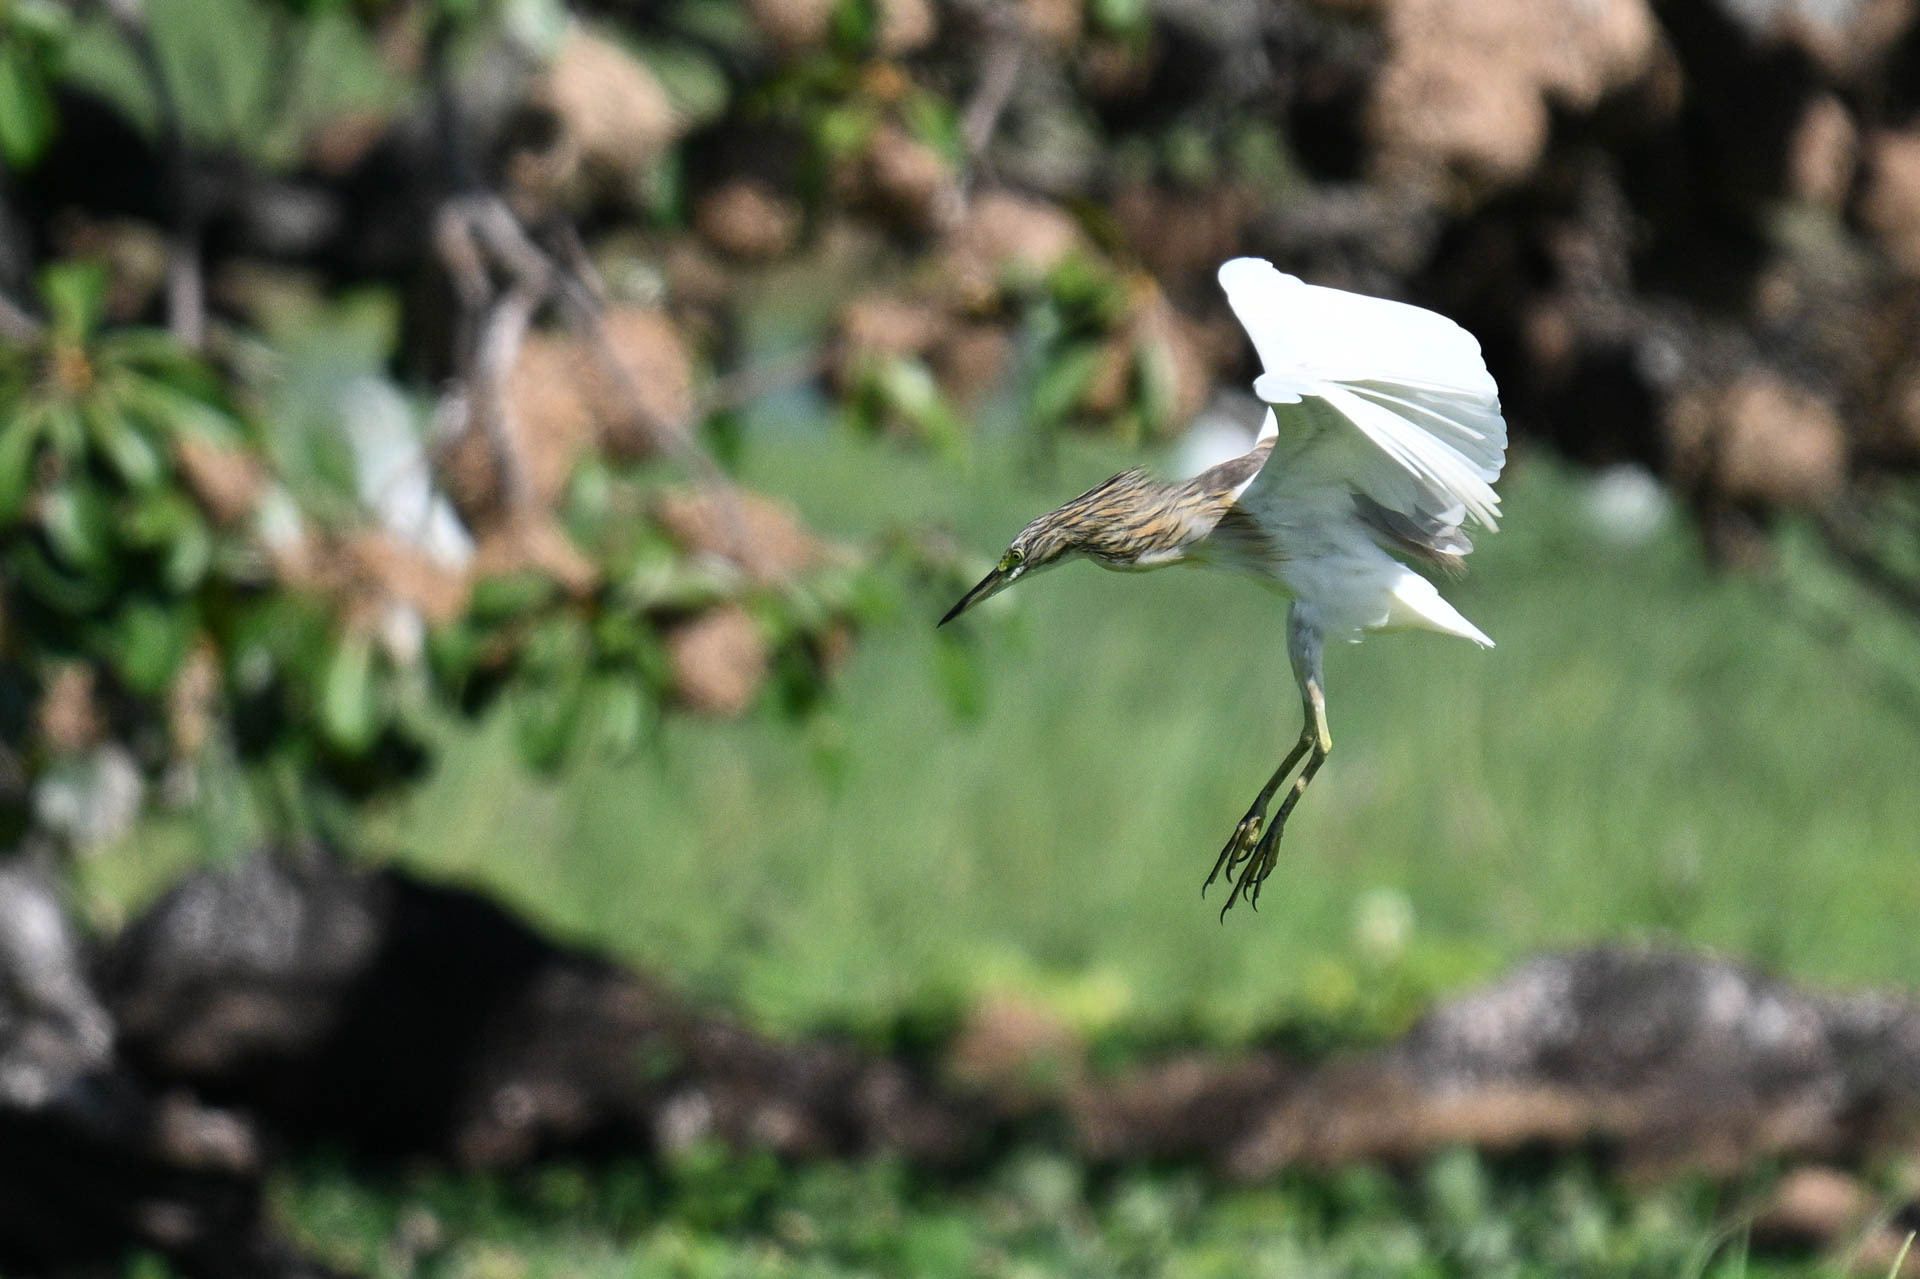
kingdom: Animalia
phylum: Chordata
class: Aves
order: Pelecaniformes
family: Ardeidae
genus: Ardeola
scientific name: Ardeola ralloides
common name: Squacco heron
